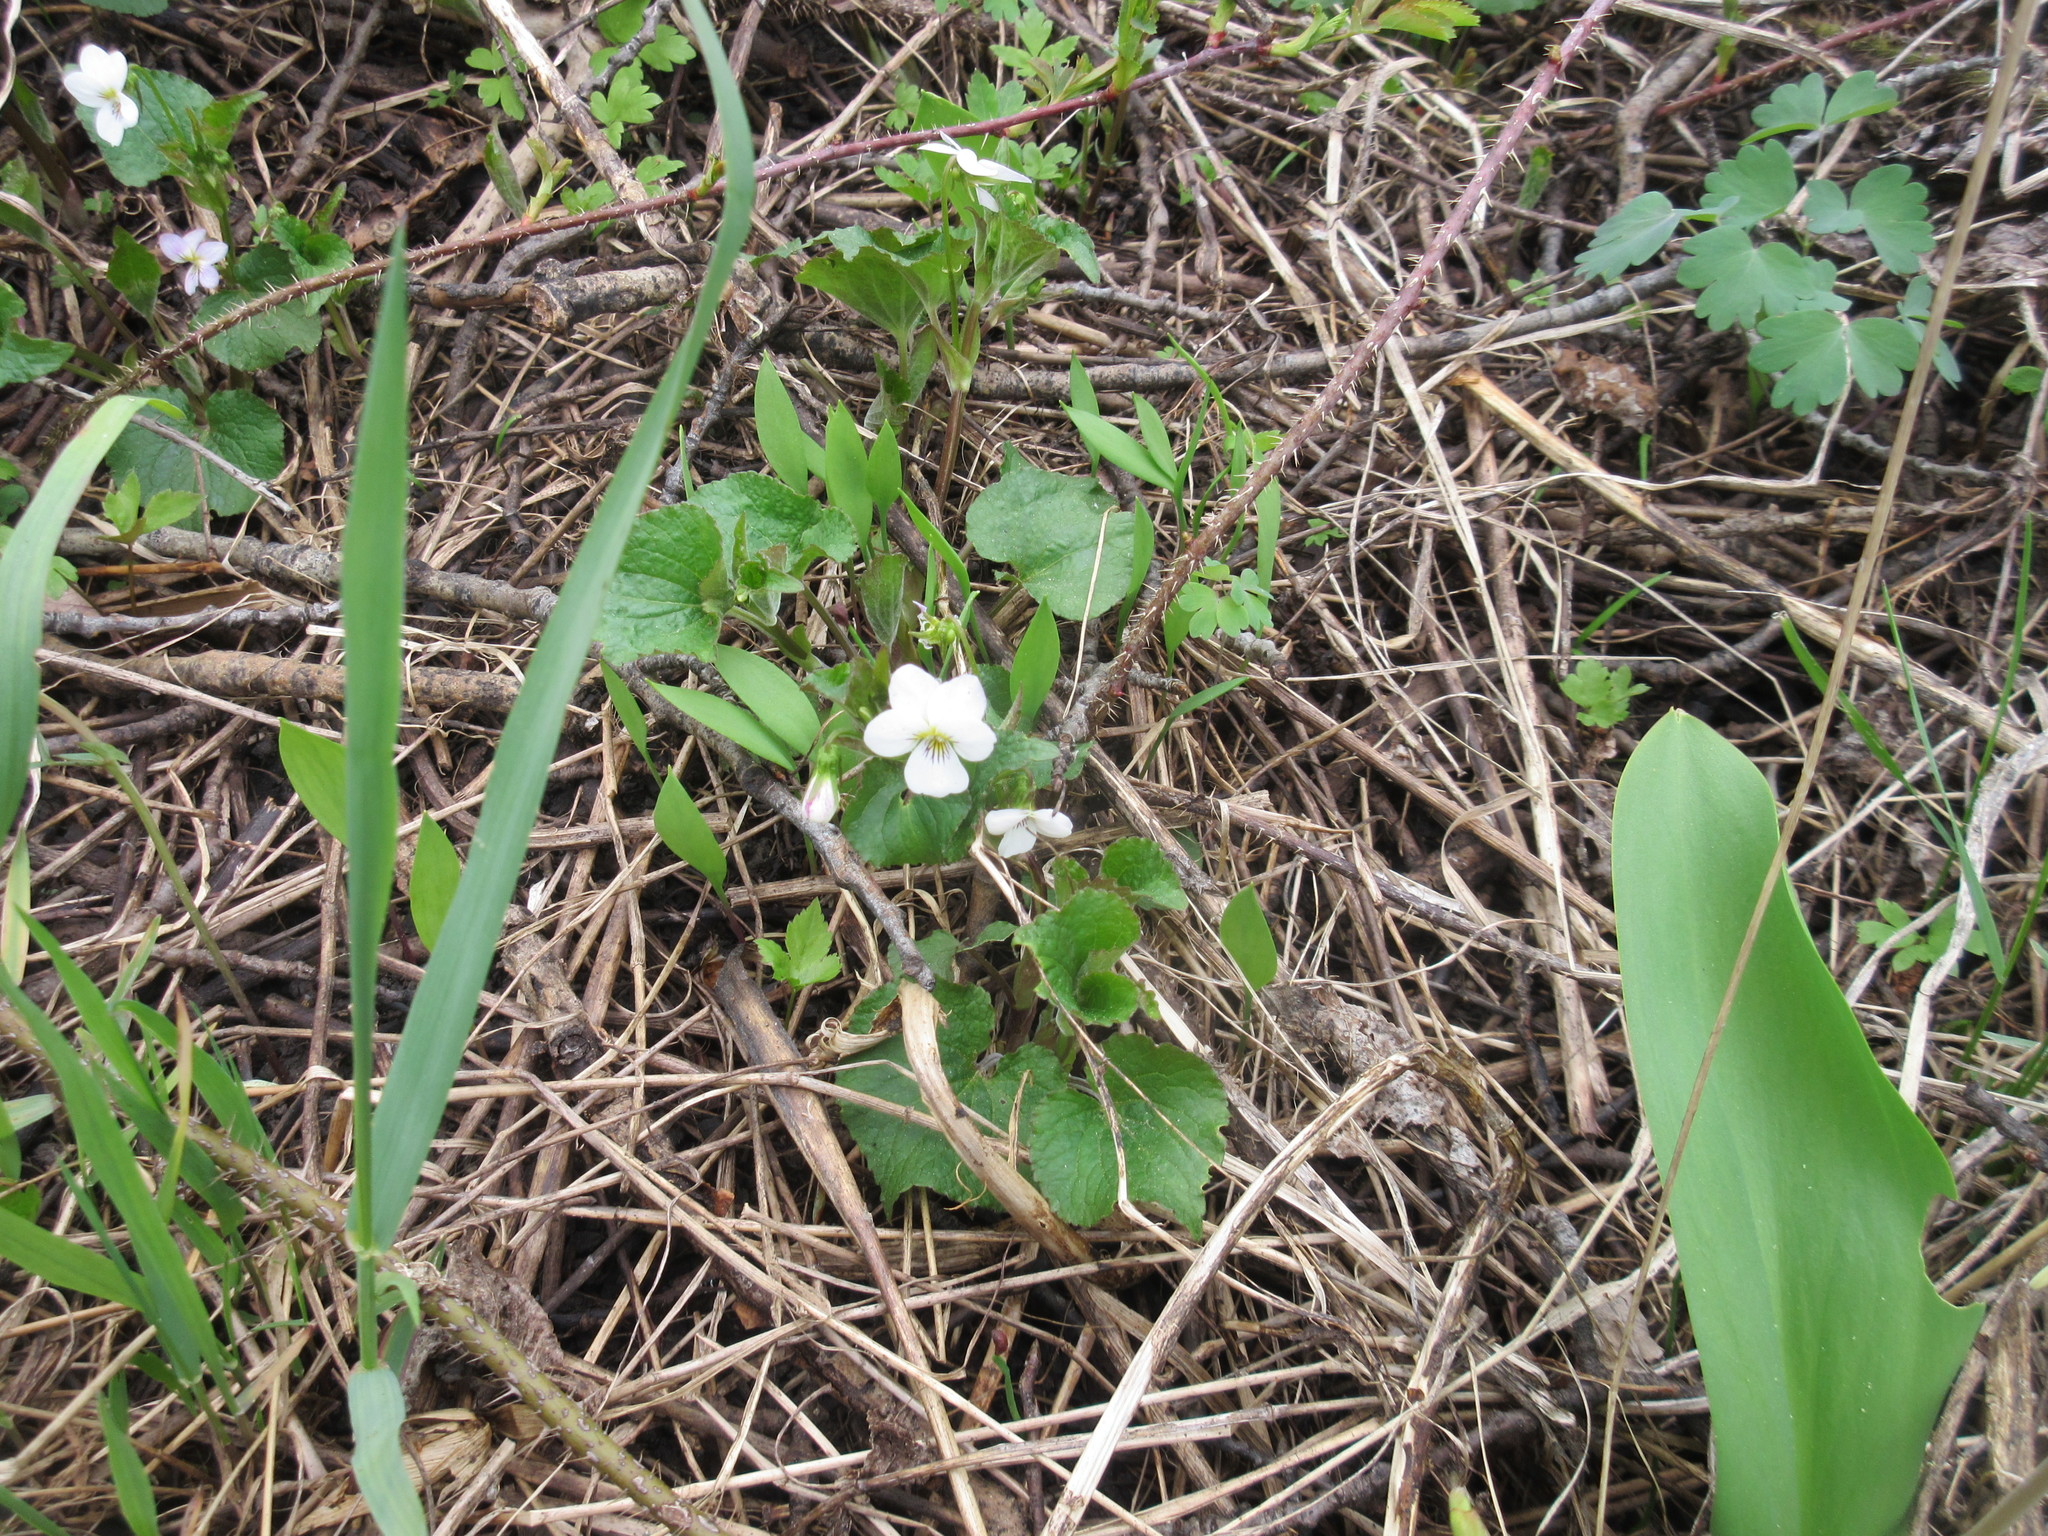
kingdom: Plantae
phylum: Tracheophyta
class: Magnoliopsida
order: Malpighiales
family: Violaceae
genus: Viola
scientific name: Viola canadensis
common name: Canada violet
